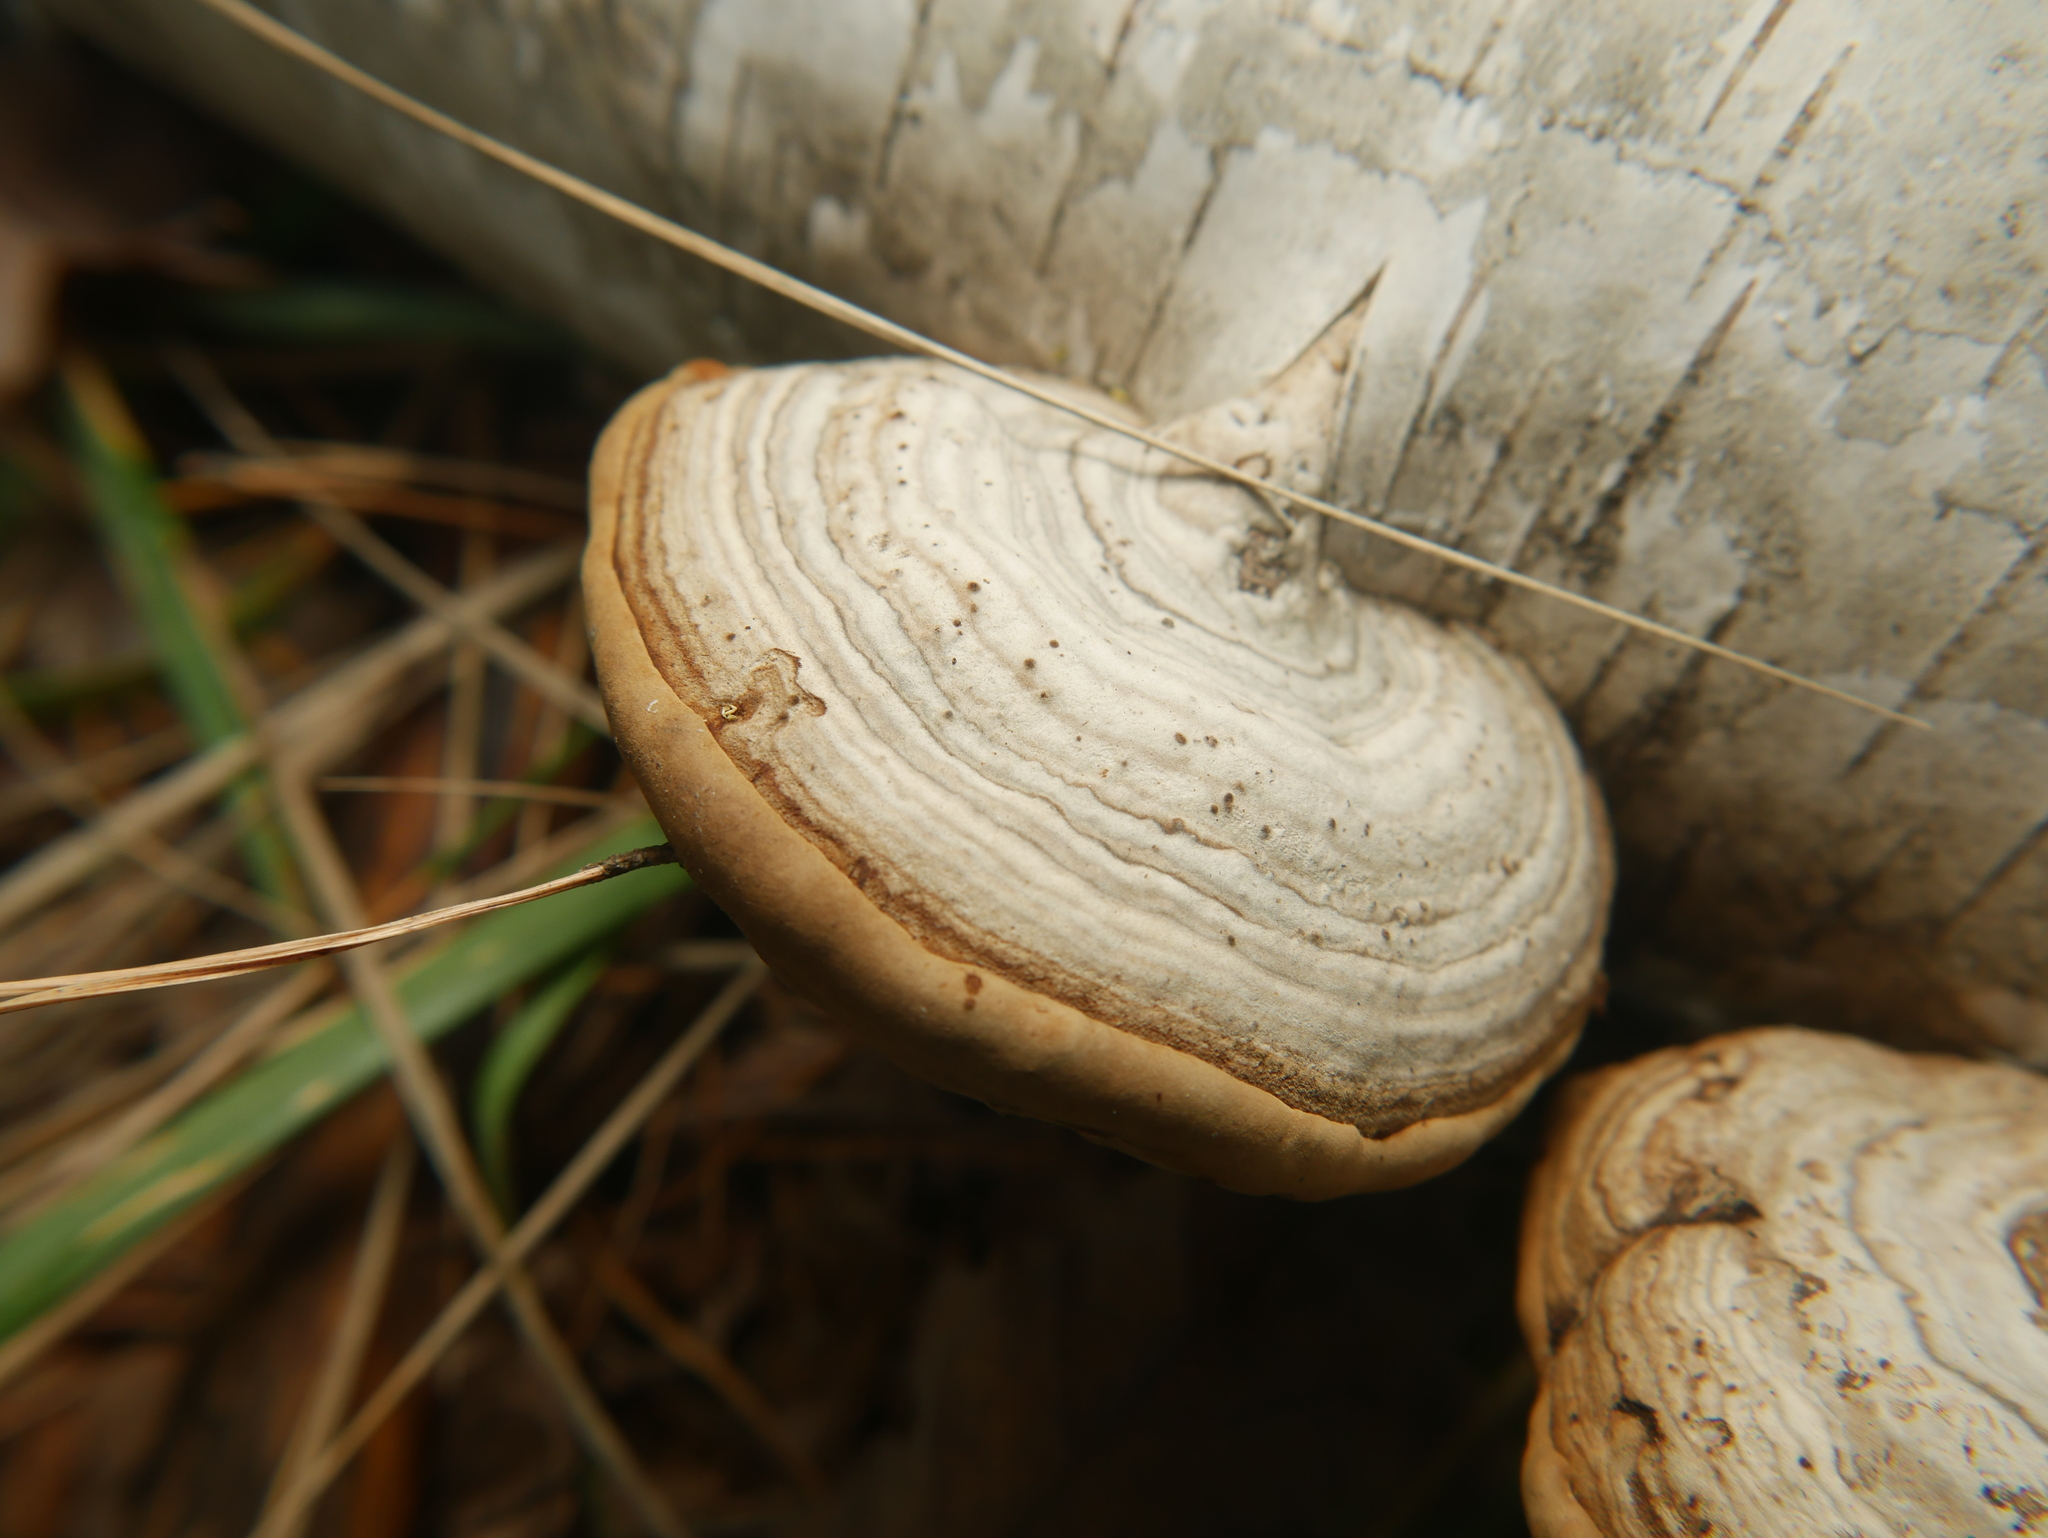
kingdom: Fungi
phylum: Basidiomycota
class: Agaricomycetes
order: Polyporales
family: Polyporaceae
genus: Fomes
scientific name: Fomes fomentarius
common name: Hoof fungus
